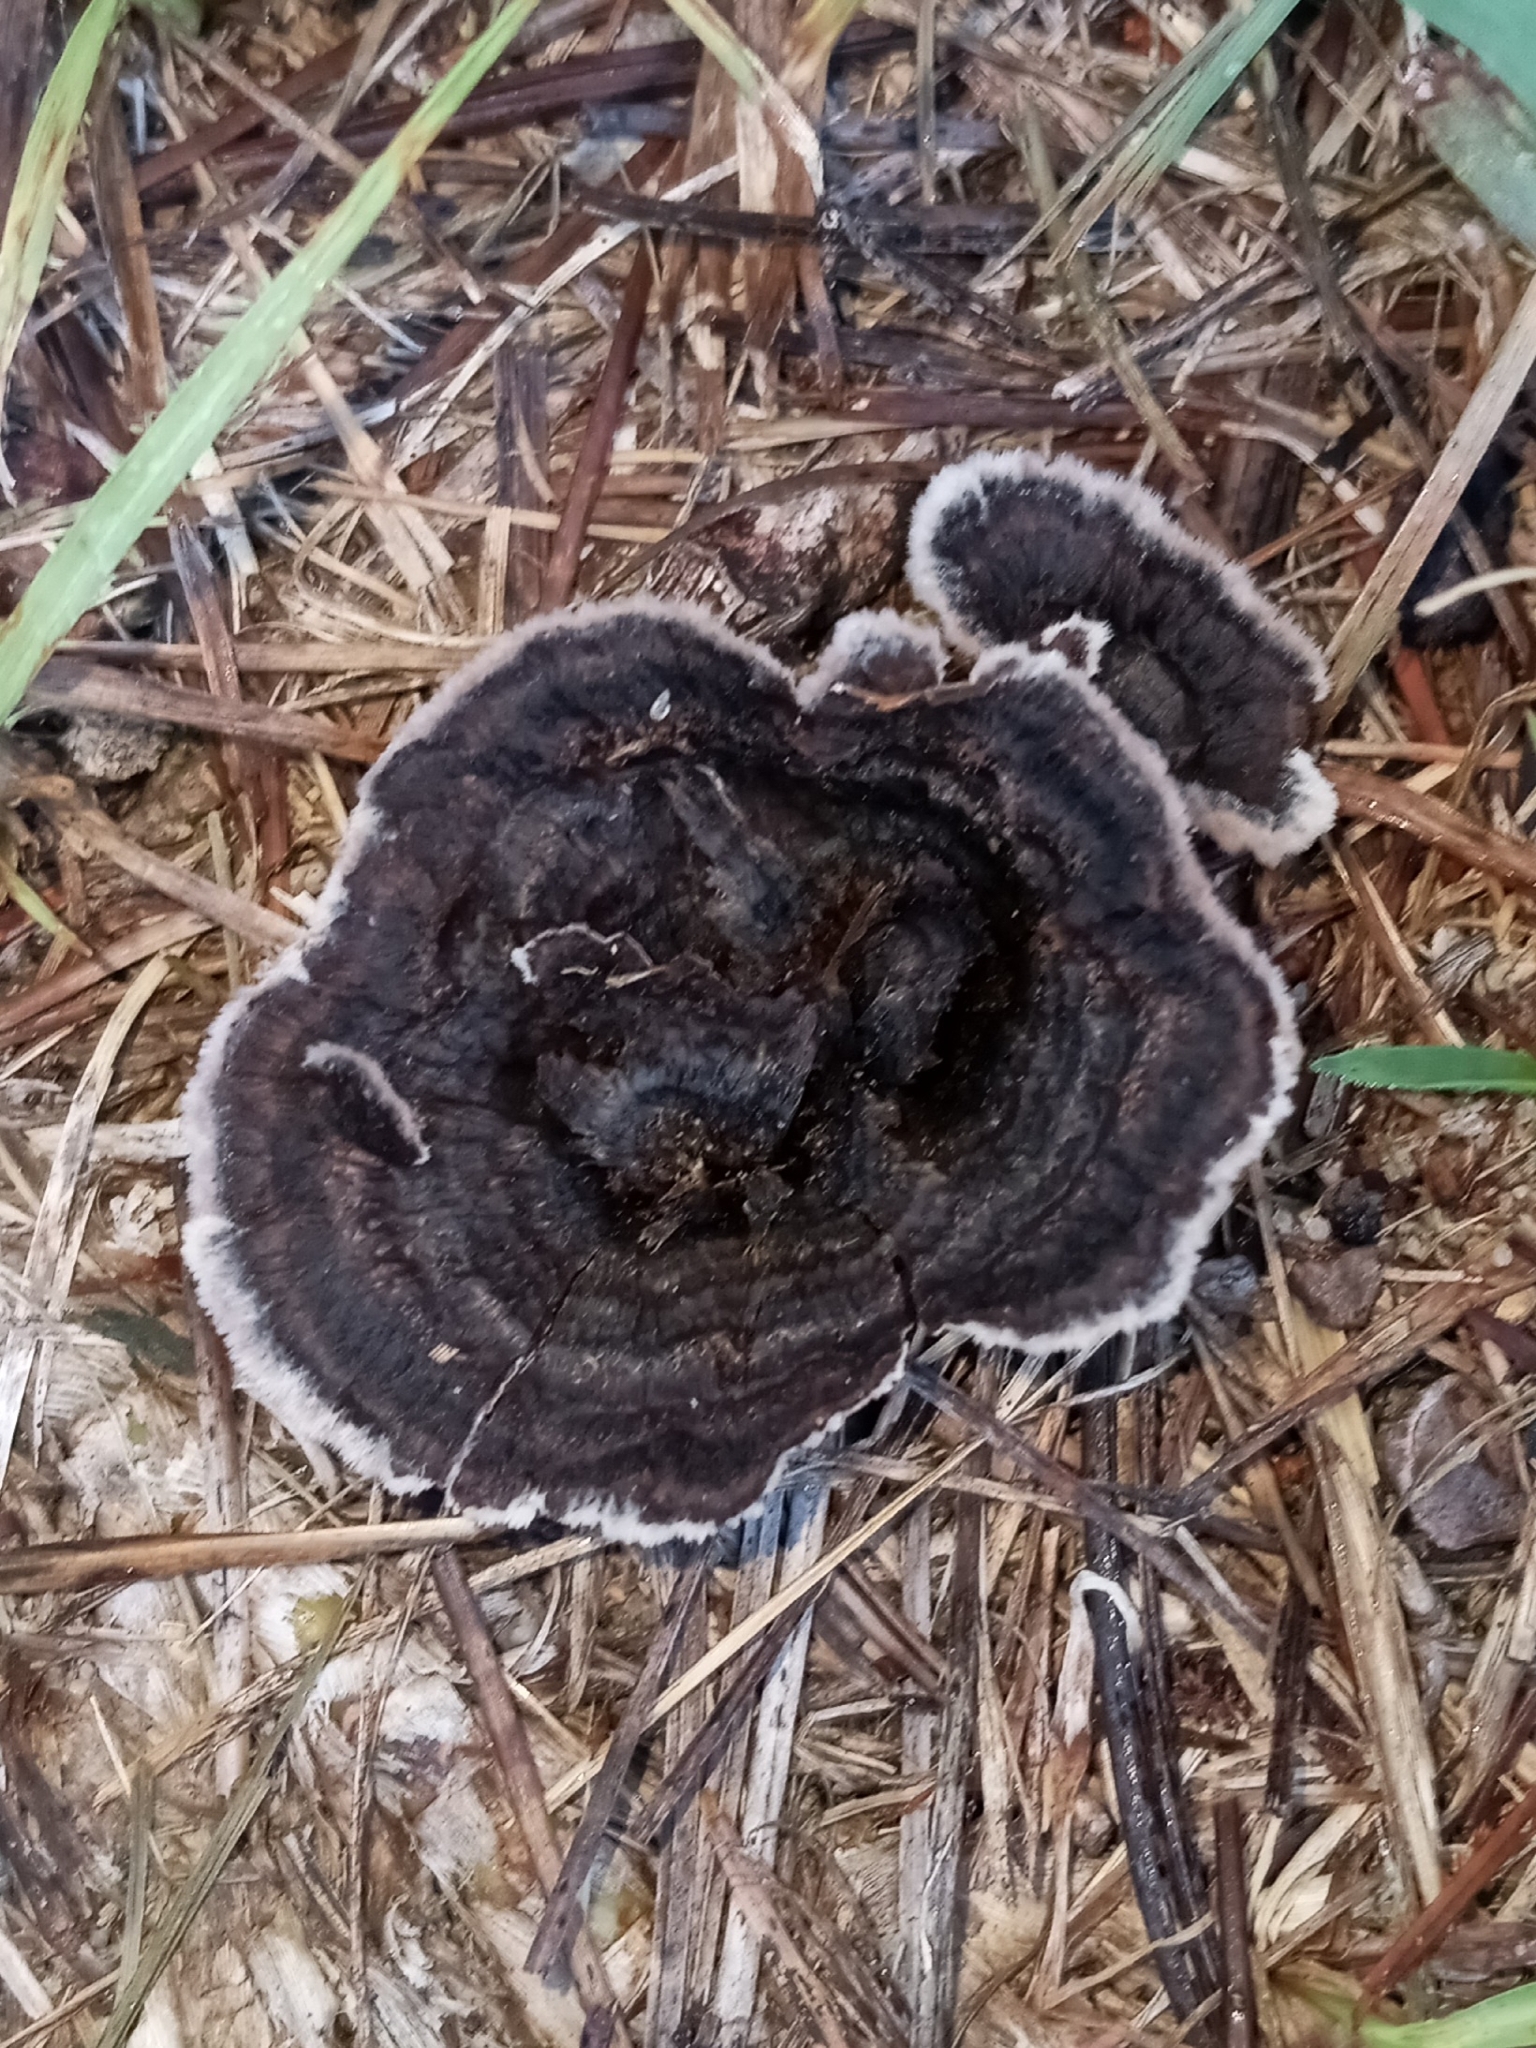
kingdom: Fungi
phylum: Basidiomycota
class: Agaricomycetes
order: Thelephorales
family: Thelephoraceae
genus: Thelephora
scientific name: Thelephora terrestris
